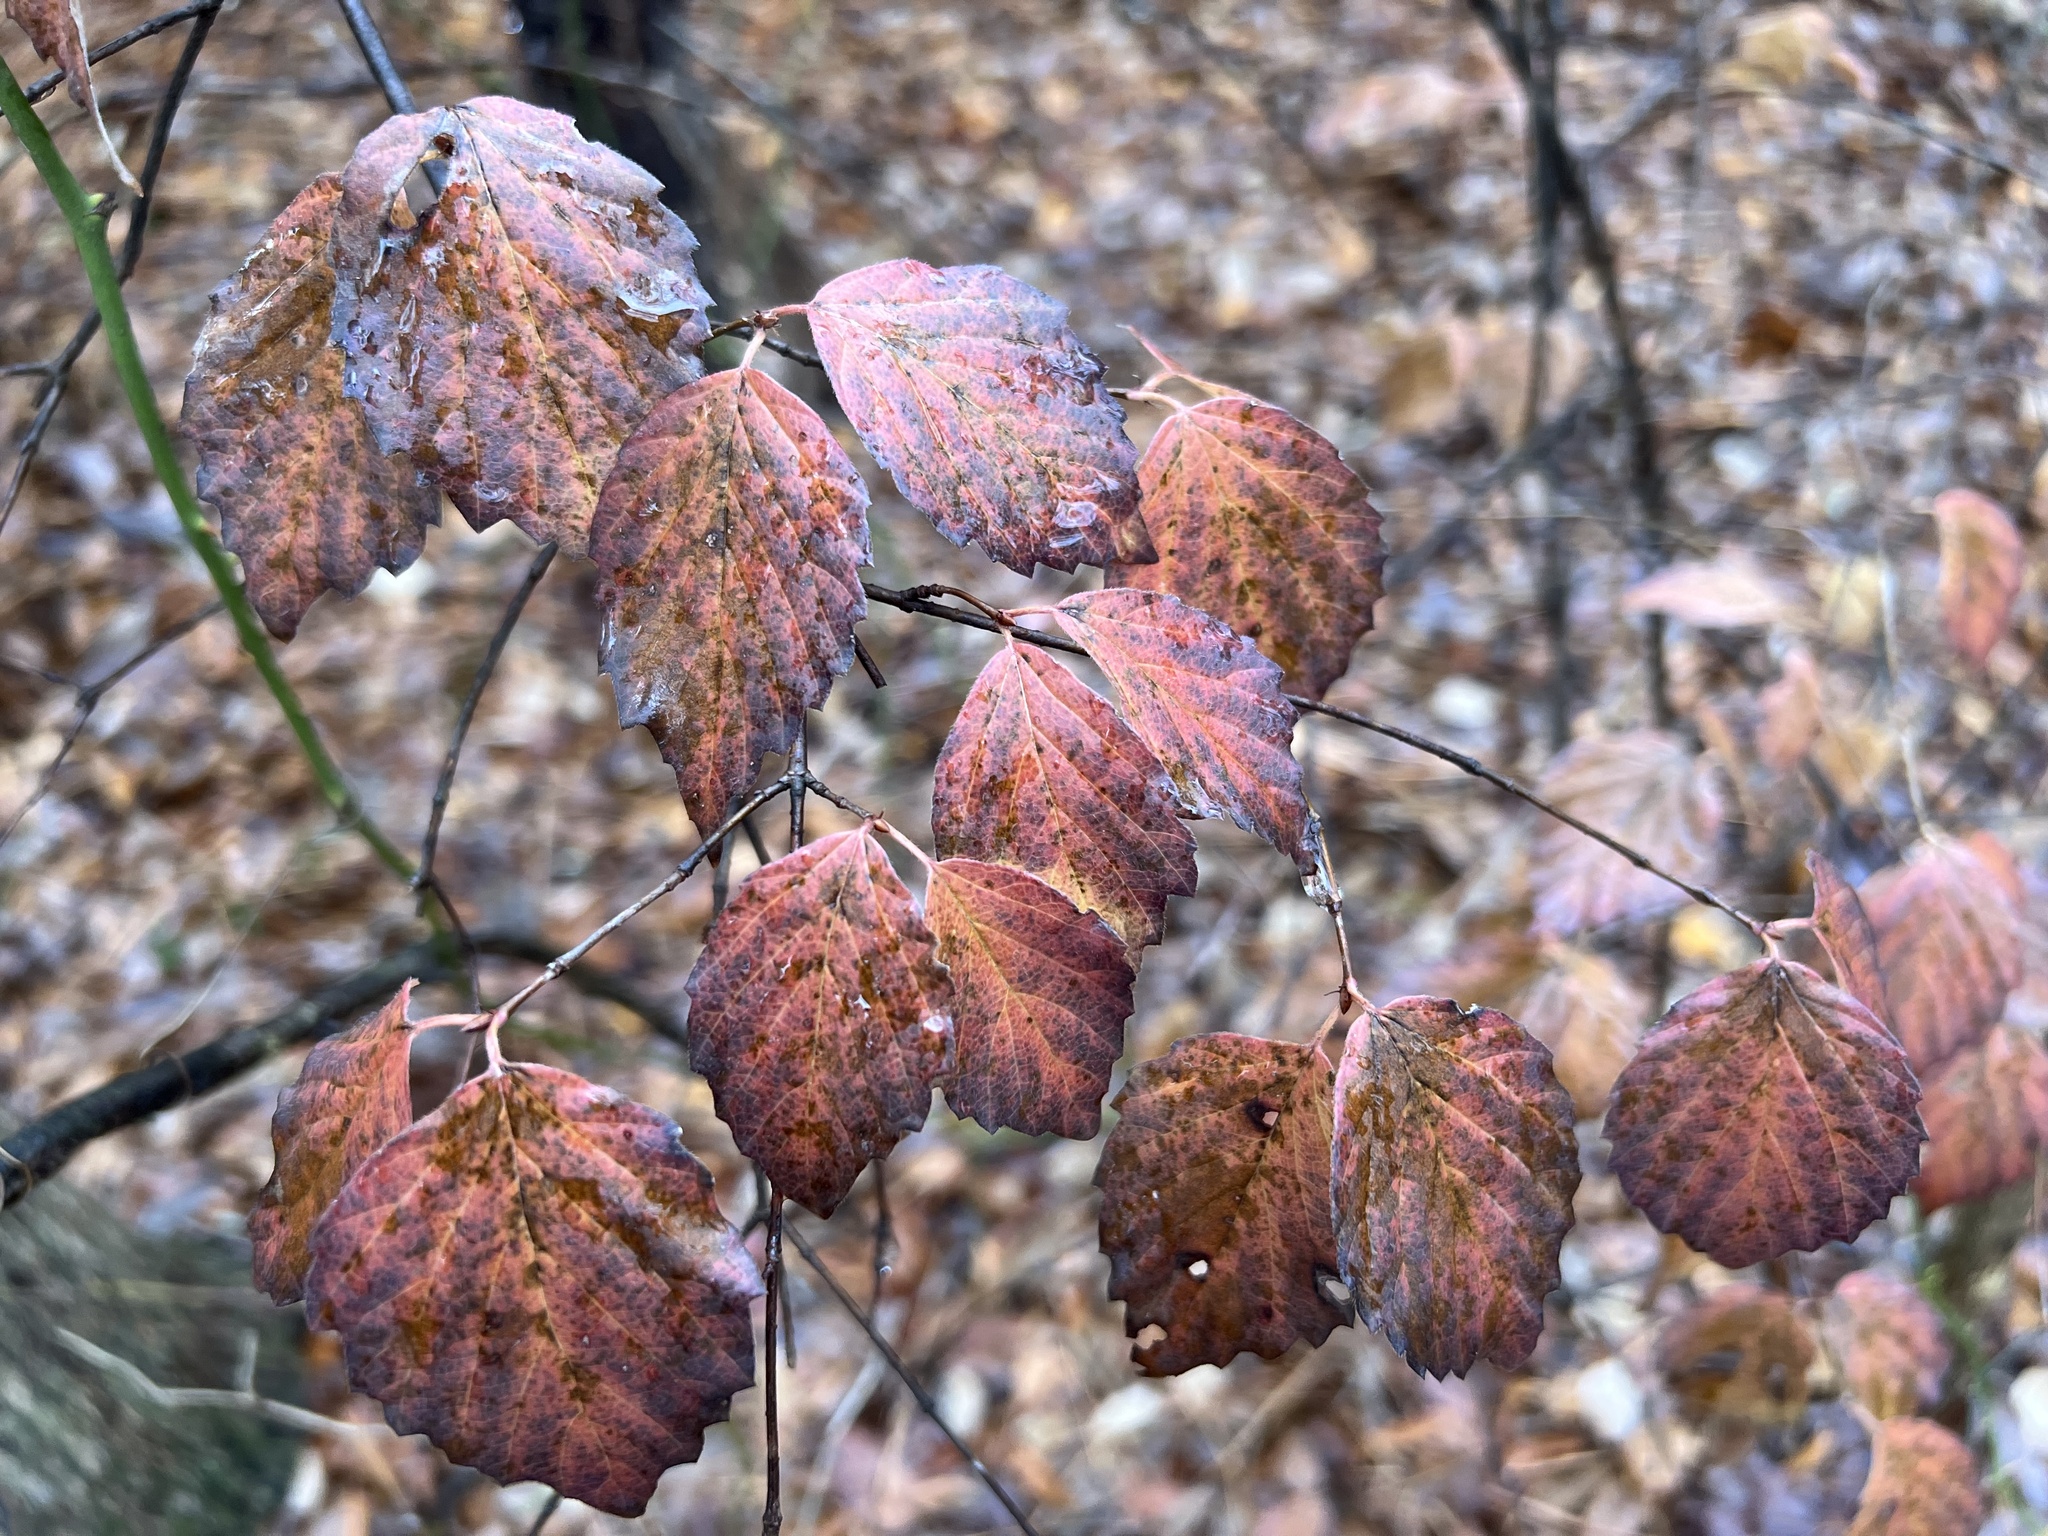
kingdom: Plantae
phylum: Tracheophyta
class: Magnoliopsida
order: Dipsacales
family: Viburnaceae
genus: Viburnum
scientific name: Viburnum rafinesqueanum
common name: Downy arrow-wood
